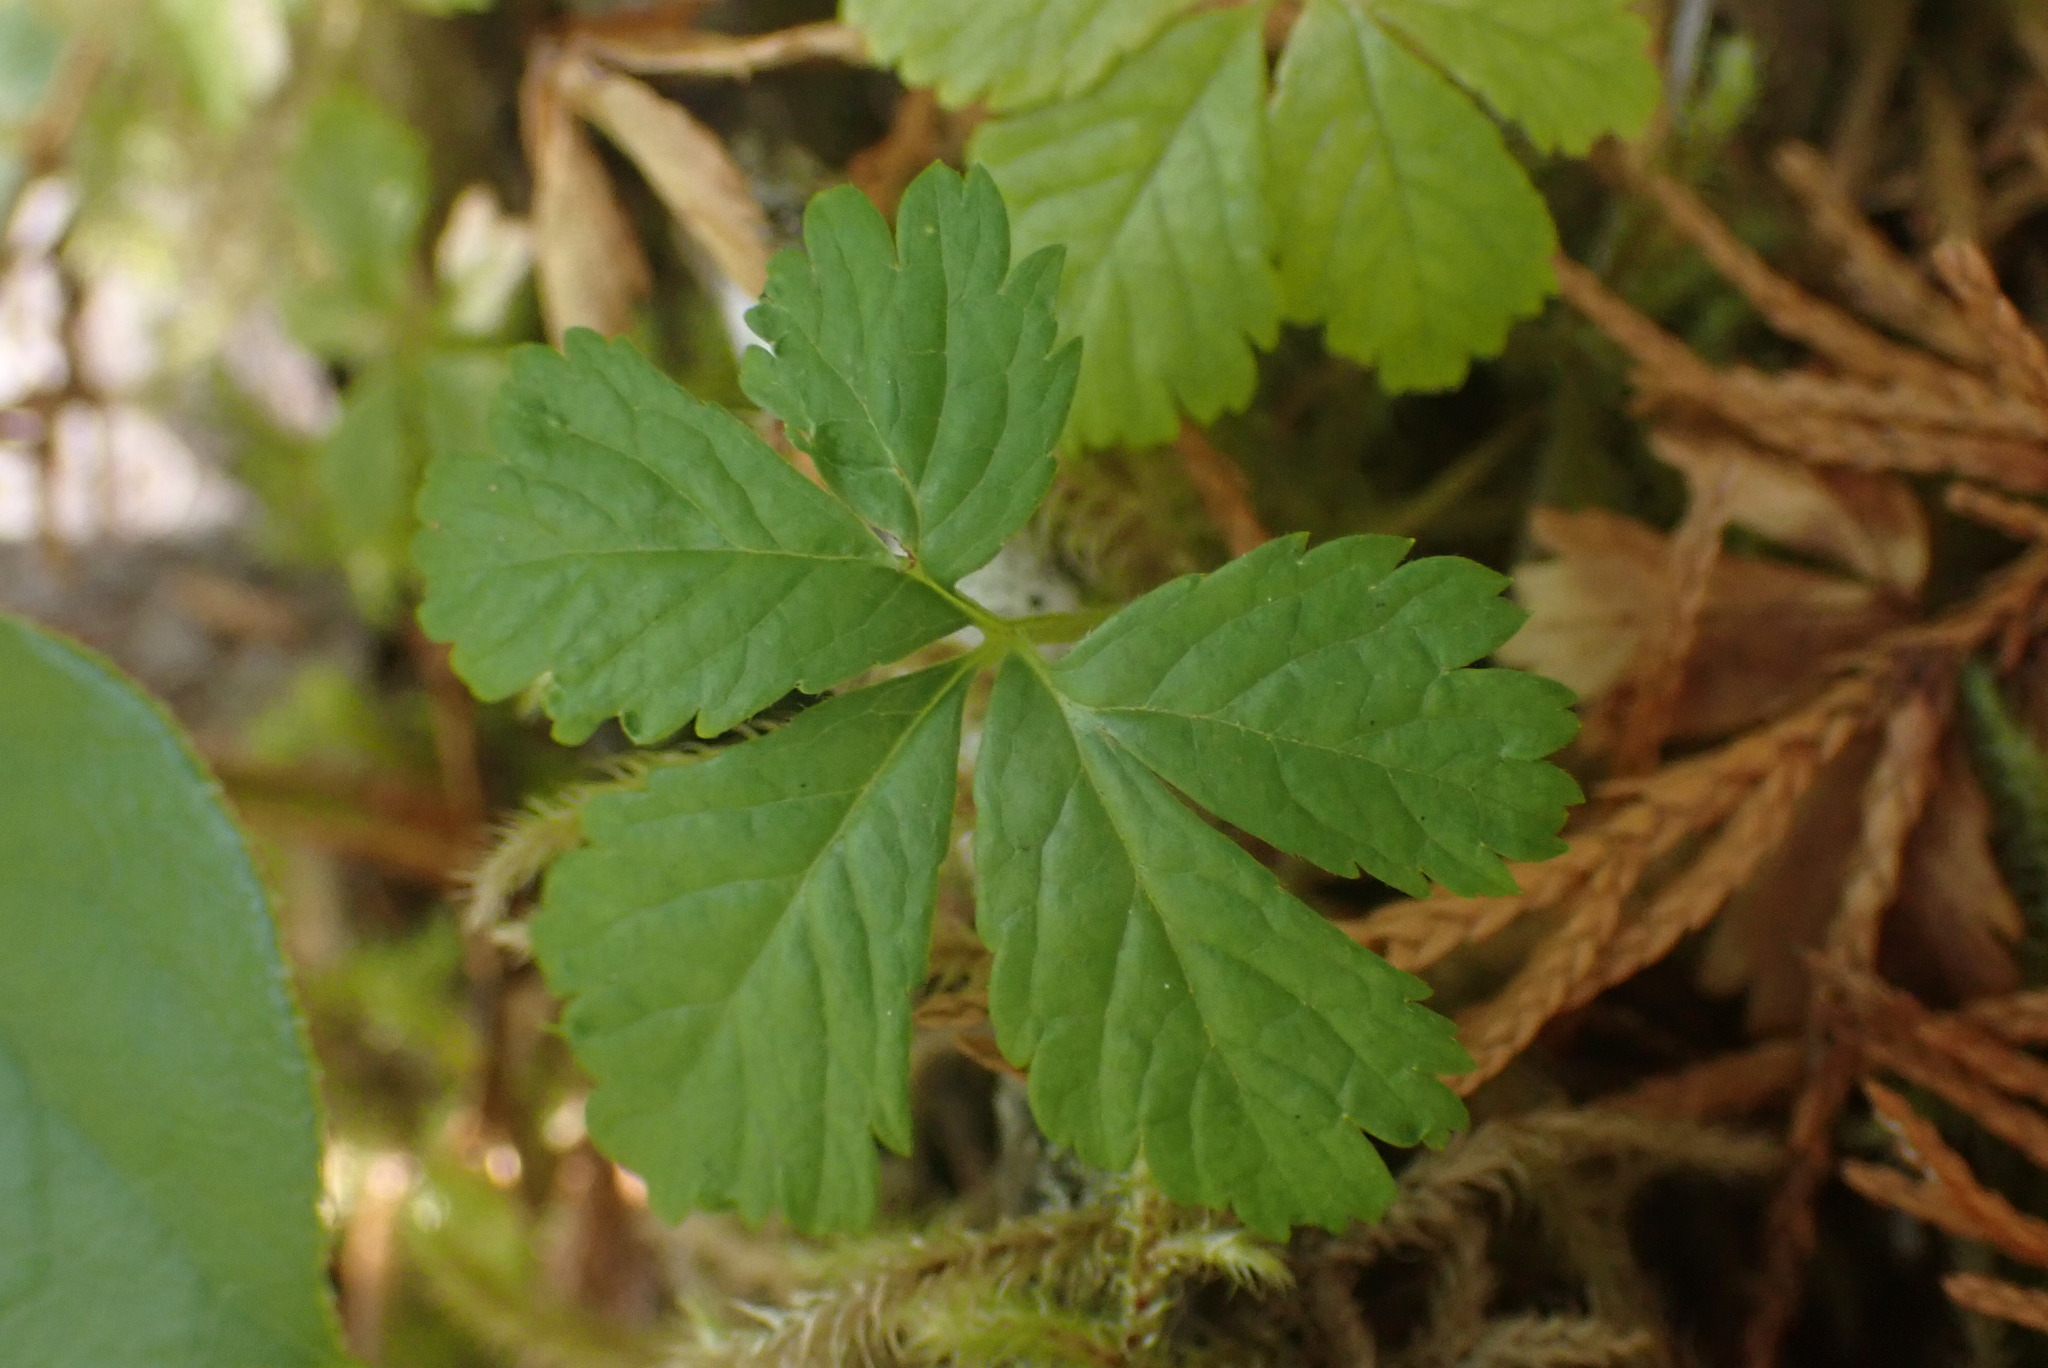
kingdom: Plantae
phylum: Tracheophyta
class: Magnoliopsida
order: Rosales
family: Rosaceae
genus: Rubus
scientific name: Rubus pedatus
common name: Creeping raspberry
